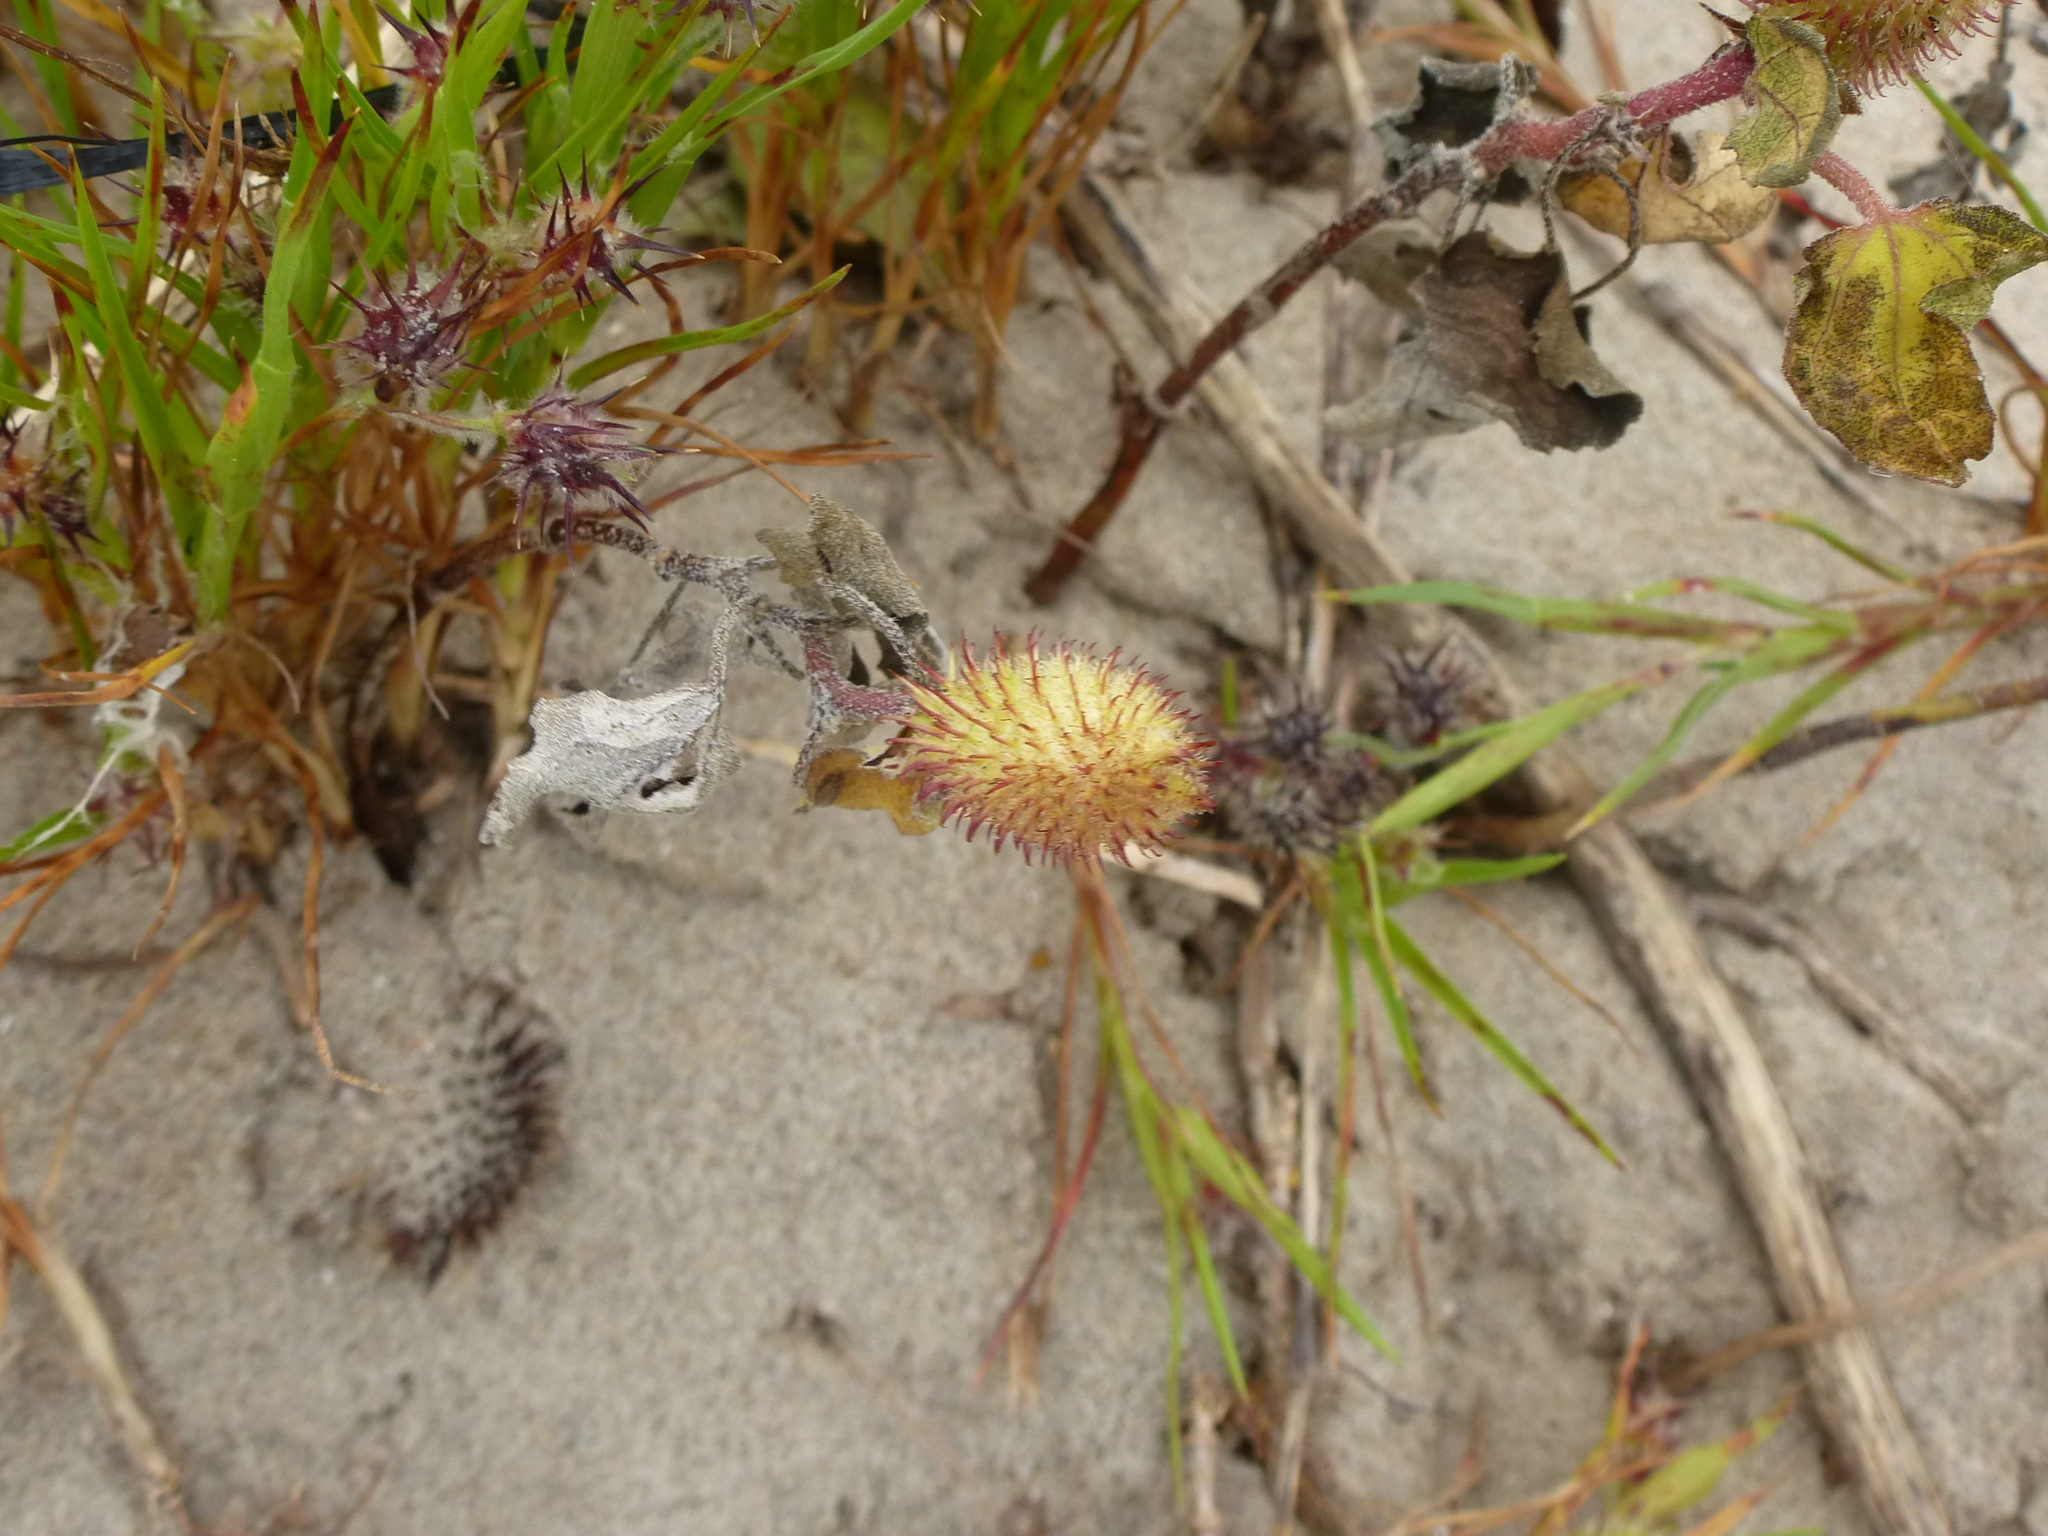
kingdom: Plantae
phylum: Tracheophyta
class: Magnoliopsida
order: Asterales
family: Asteraceae
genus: Xanthium
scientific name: Xanthium strumarium
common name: Rough cocklebur
